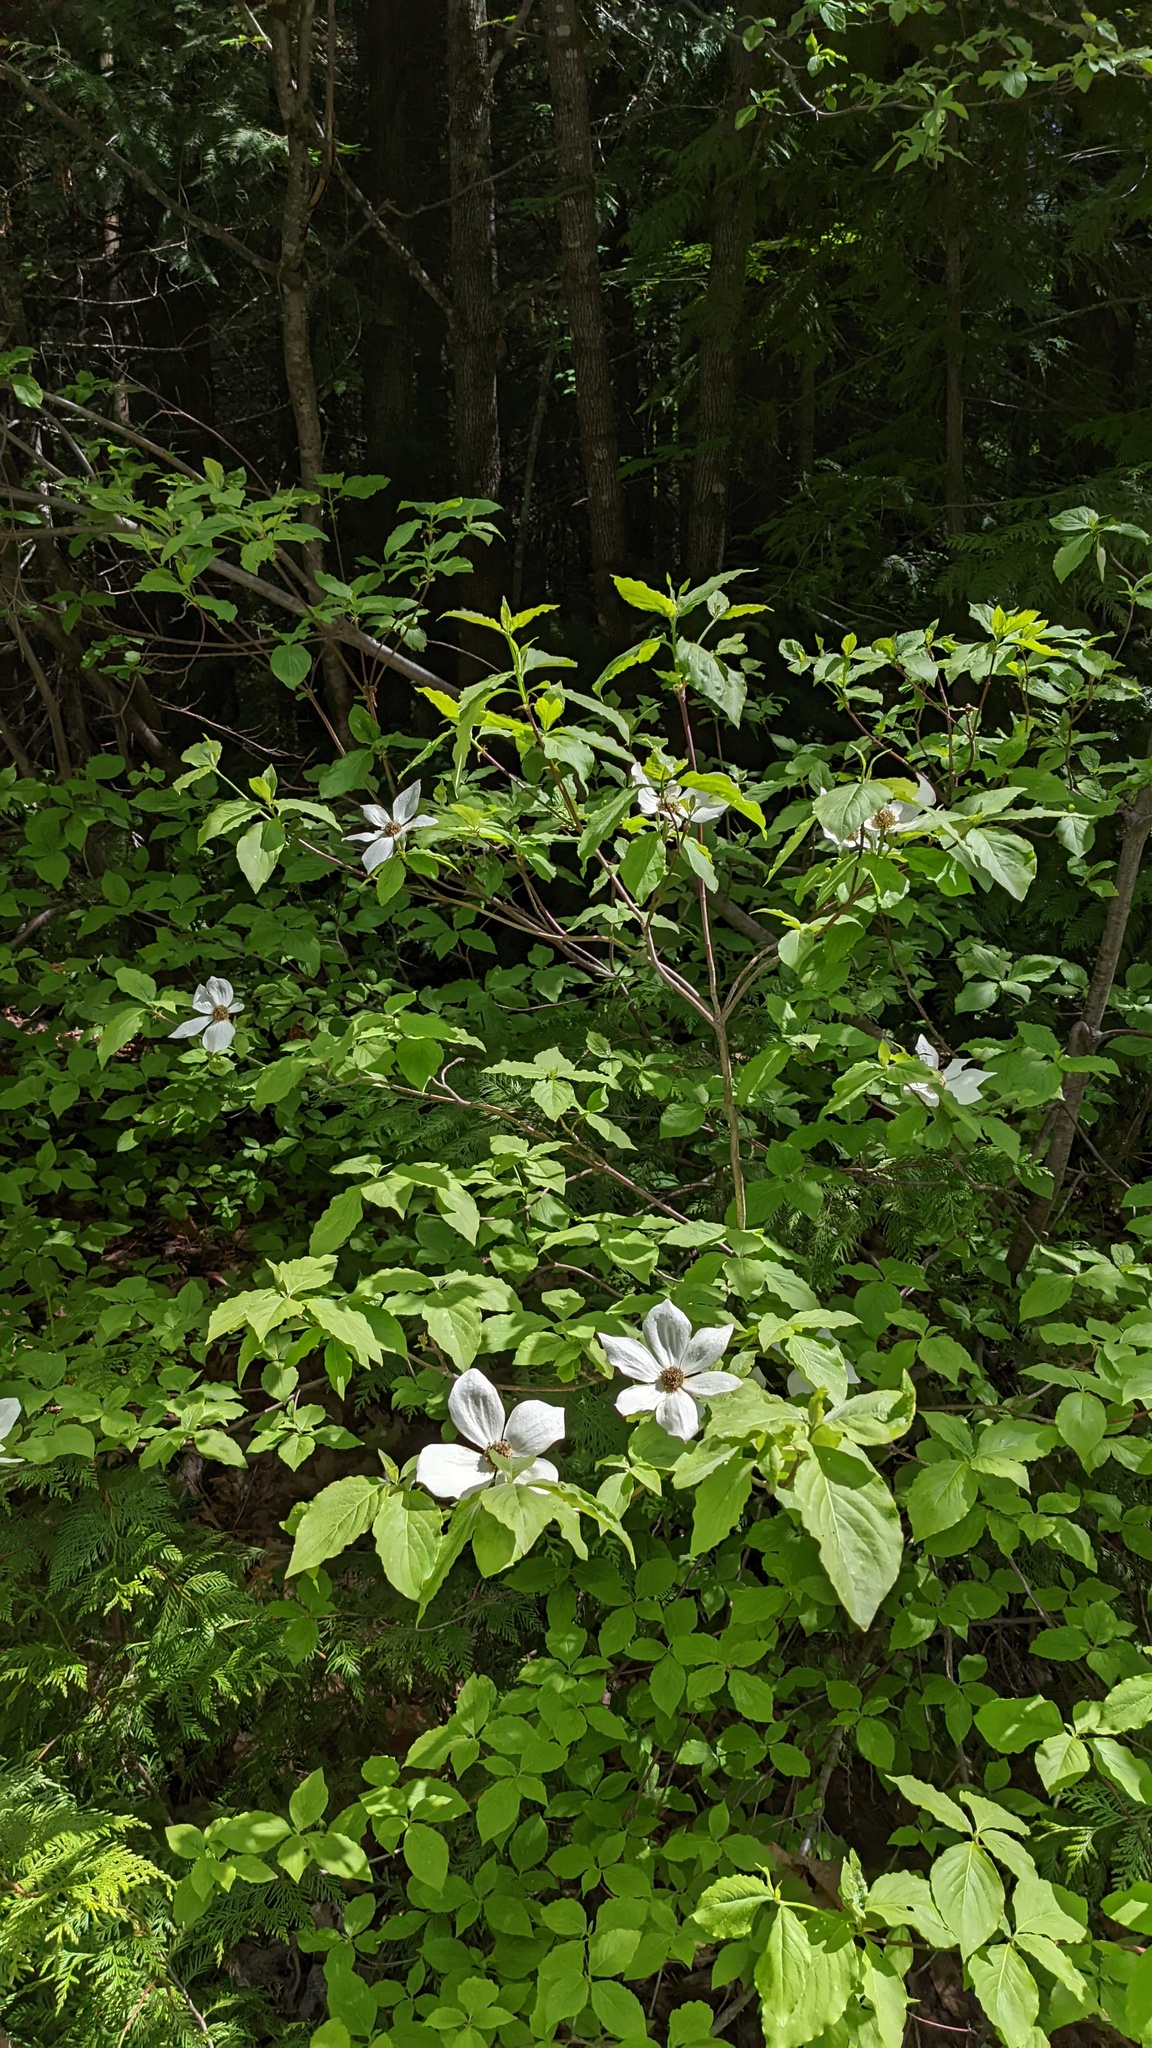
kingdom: Plantae
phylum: Tracheophyta
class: Magnoliopsida
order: Cornales
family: Cornaceae
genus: Cornus
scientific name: Cornus nuttallii
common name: Pacific dogwood
